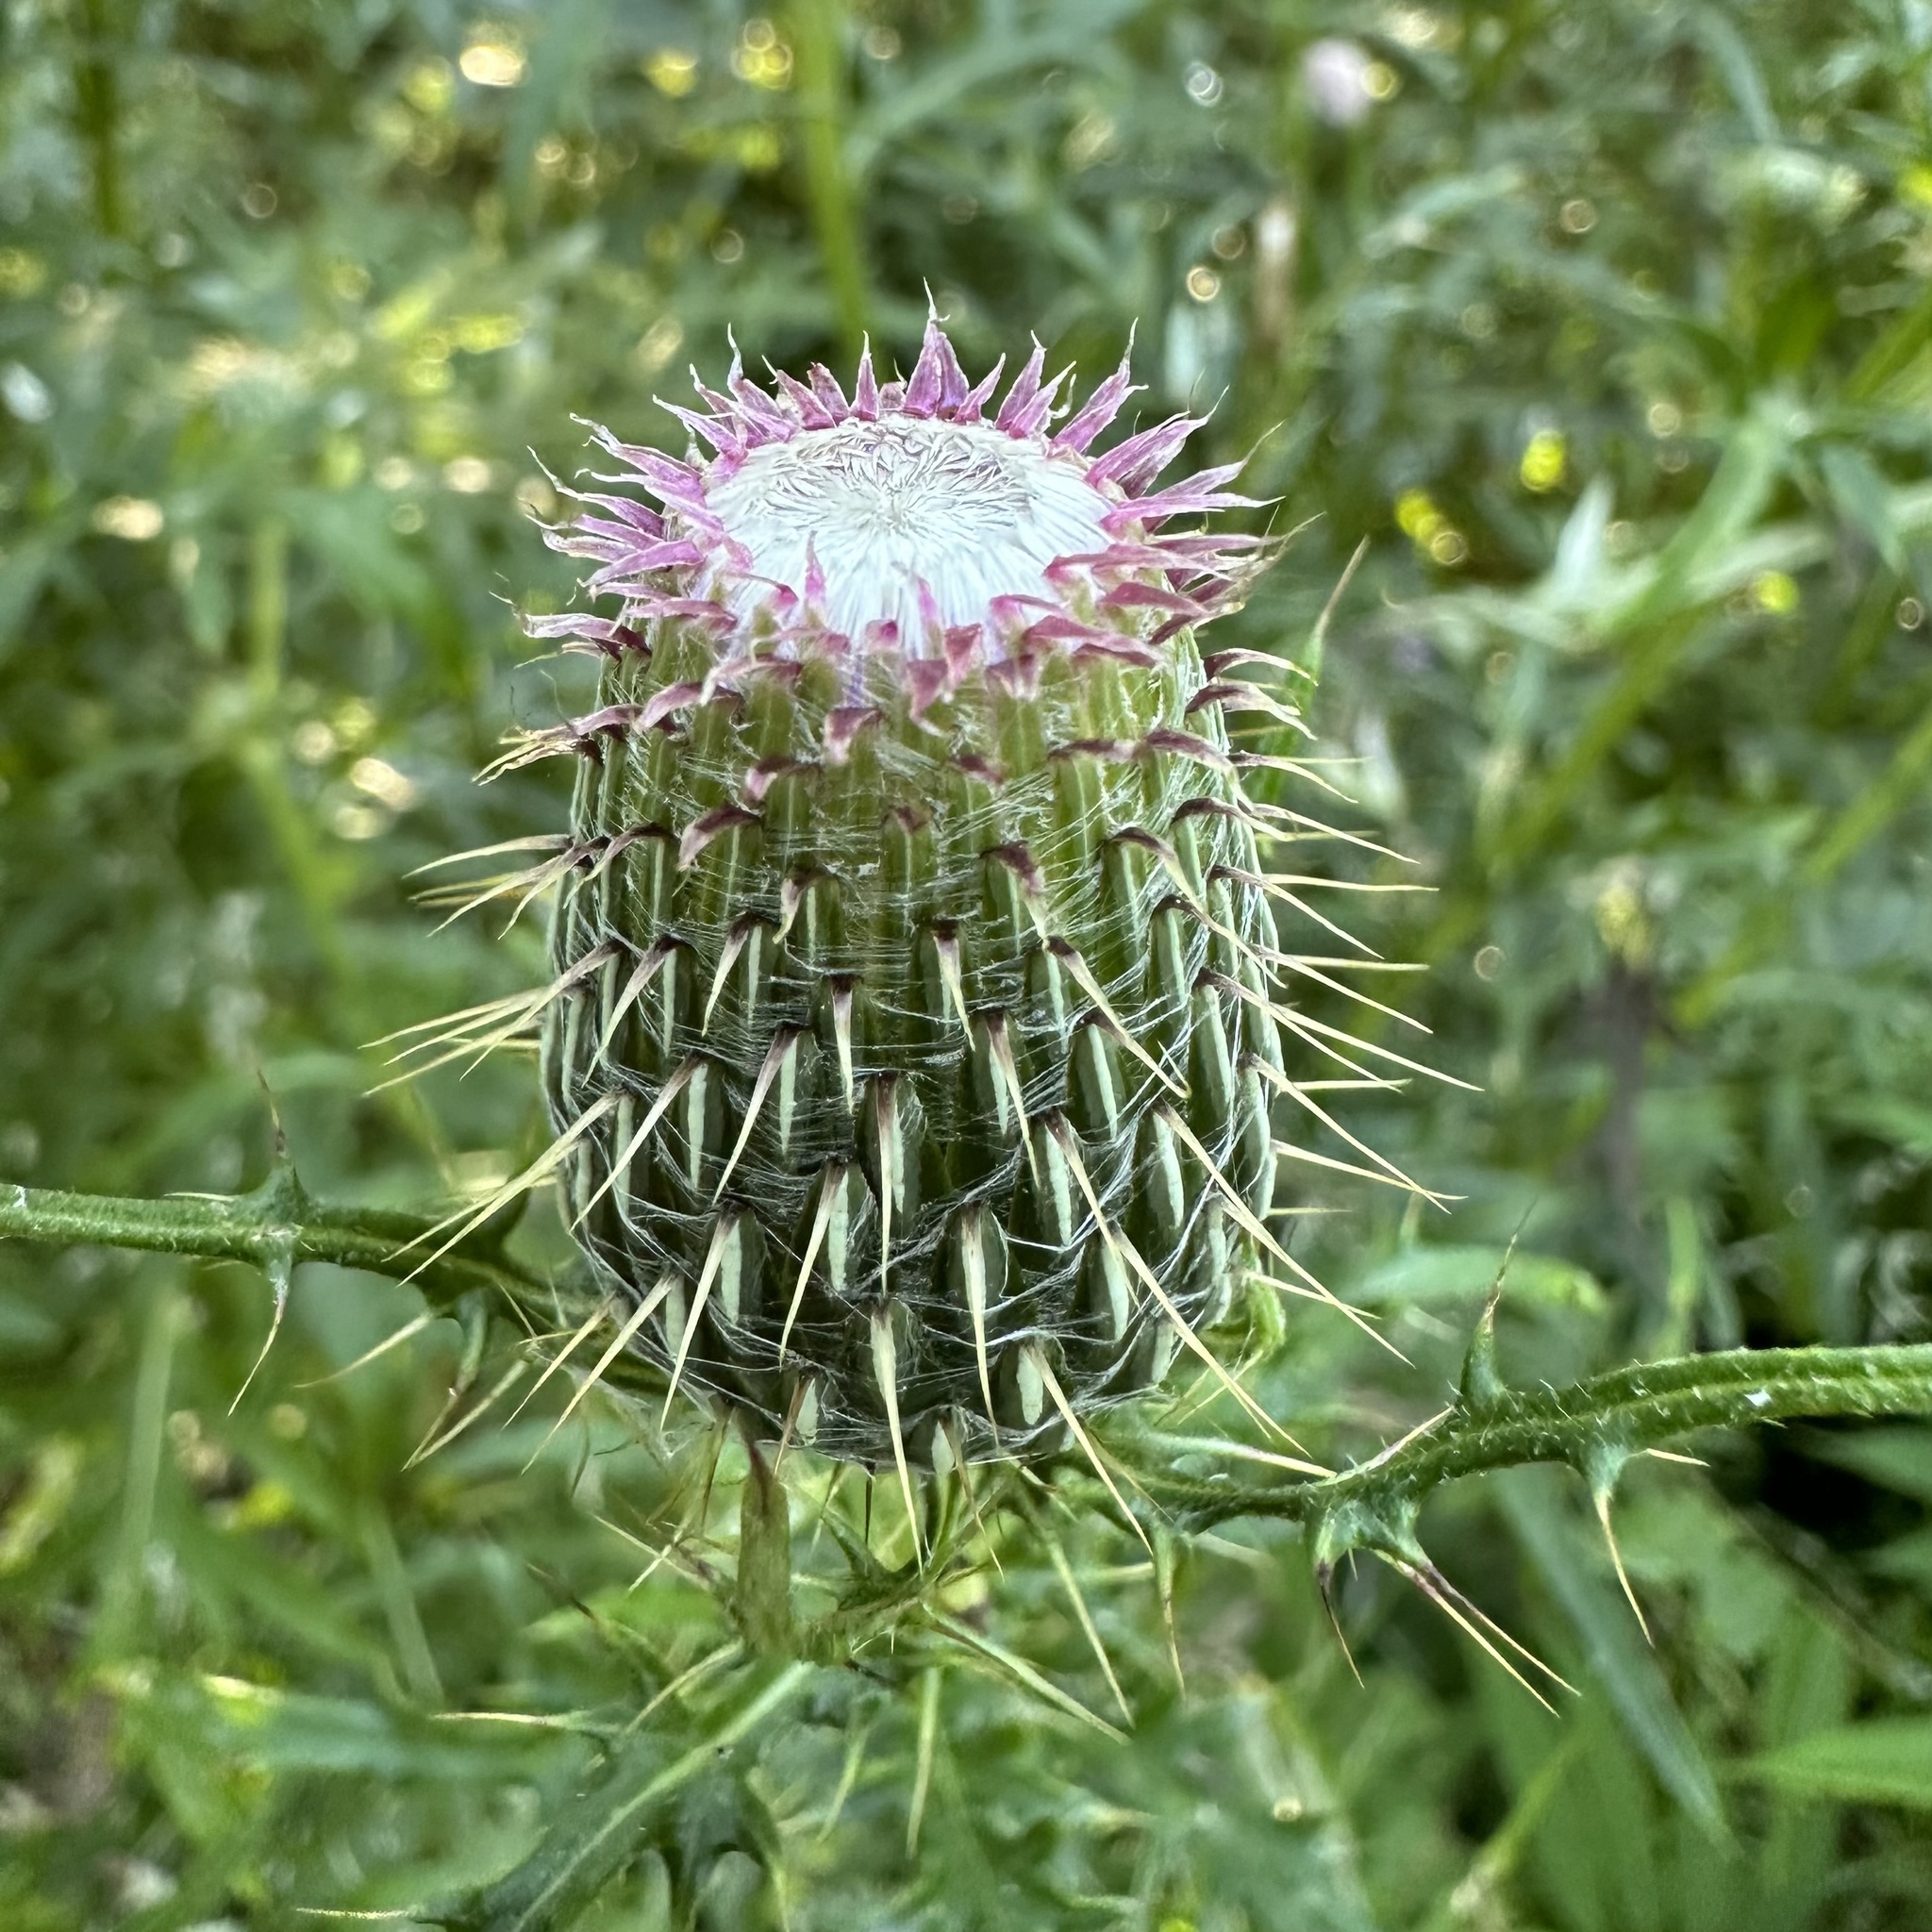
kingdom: Plantae
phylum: Tracheophyta
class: Magnoliopsida
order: Asterales
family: Asteraceae
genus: Cirsium
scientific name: Cirsium discolor
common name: Field thistle
